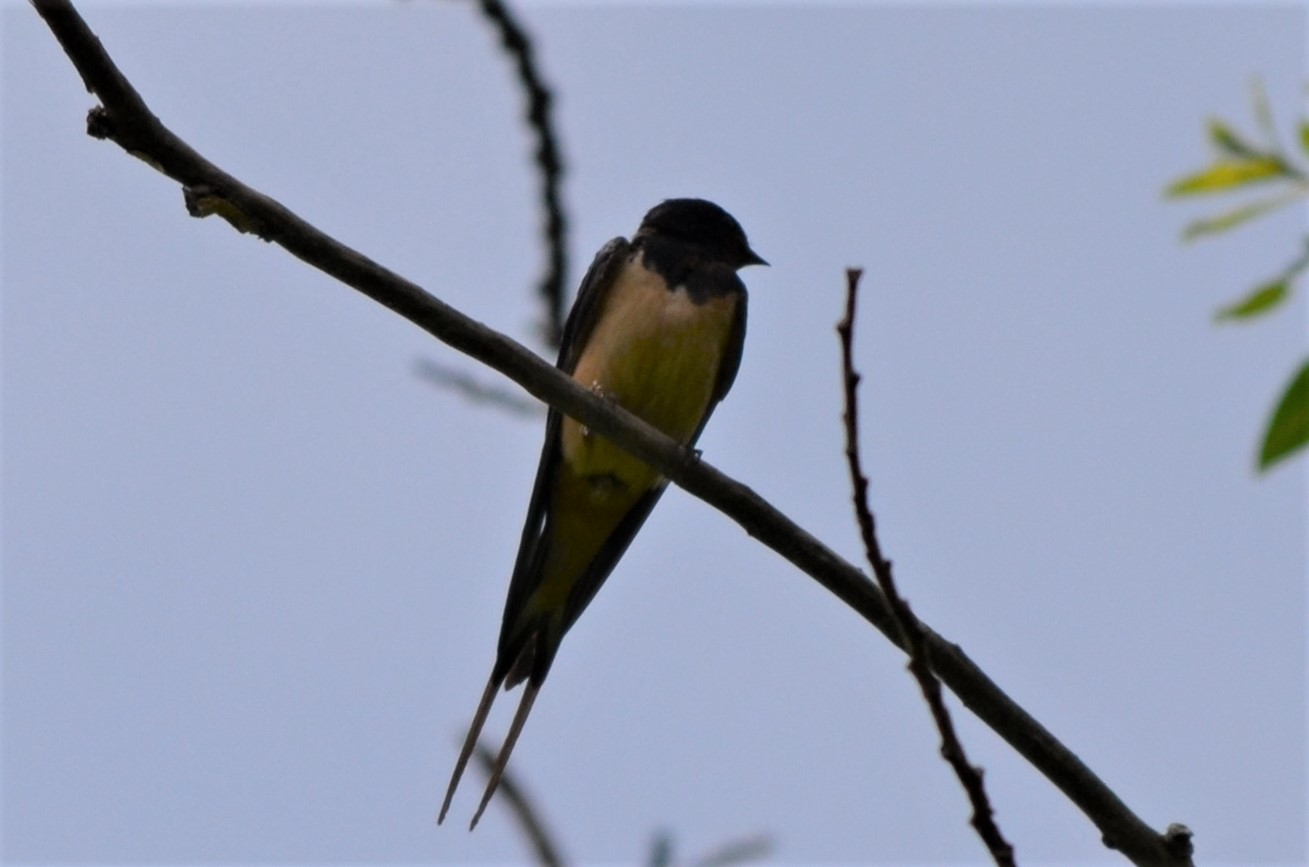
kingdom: Animalia
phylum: Chordata
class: Aves
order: Passeriformes
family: Hirundinidae
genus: Hirundo
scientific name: Hirundo rustica
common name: Barn swallow
